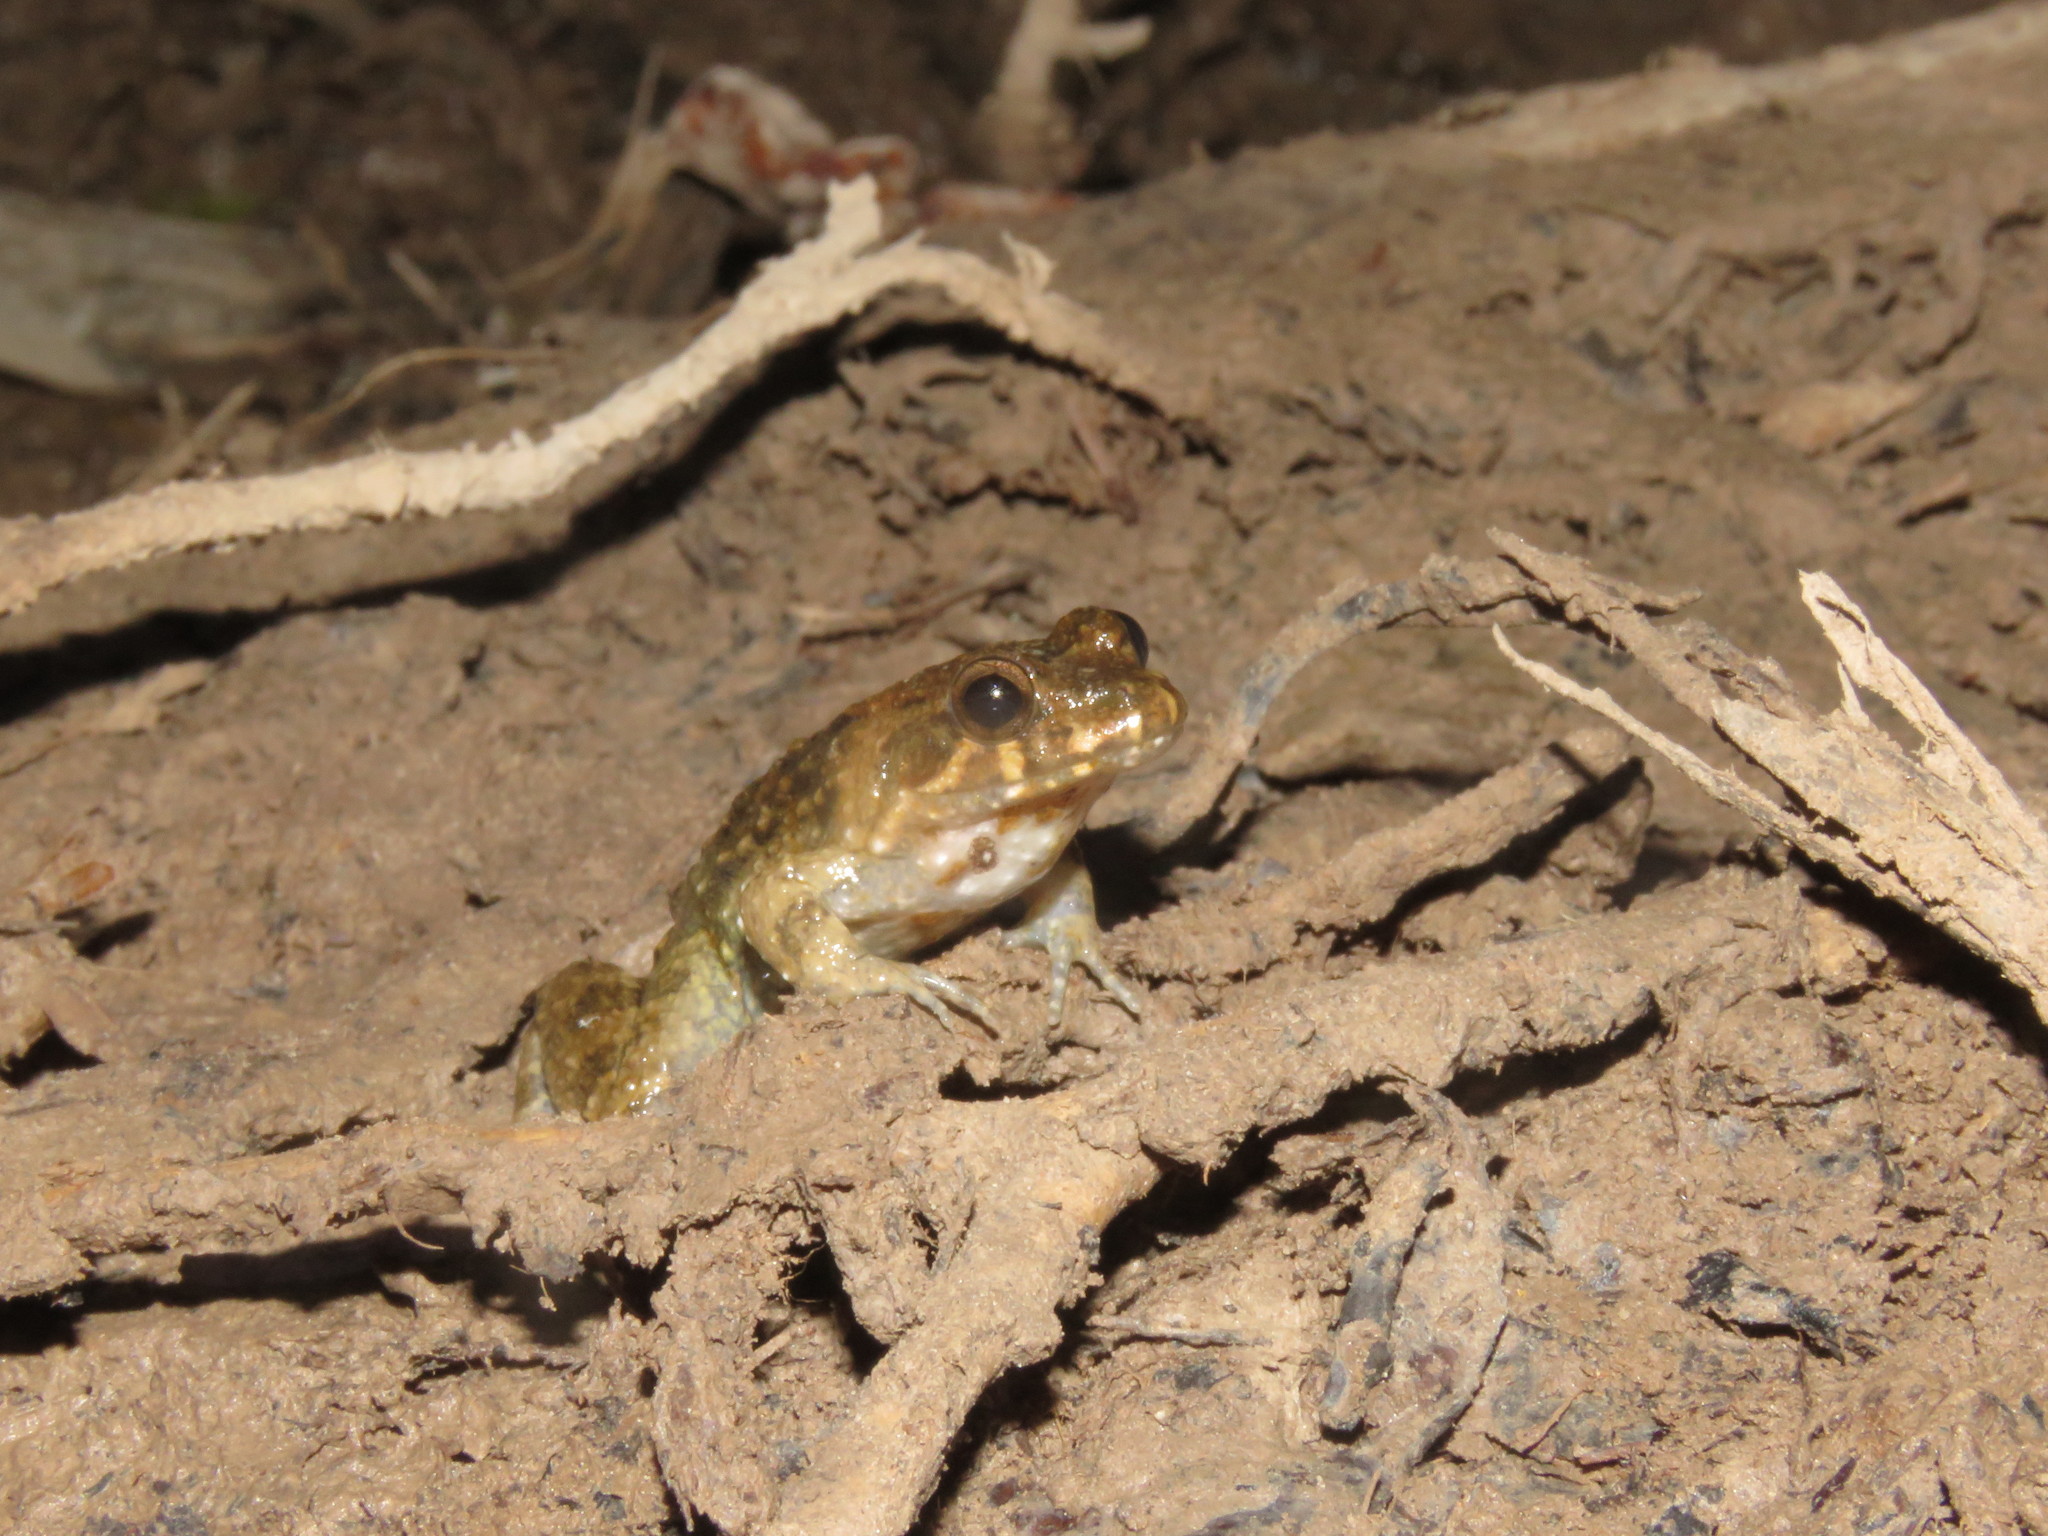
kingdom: Animalia
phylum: Chordata
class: Amphibia
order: Anura
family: Leptodactylidae
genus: Leptodactylus
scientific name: Leptodactylus griseigularis
